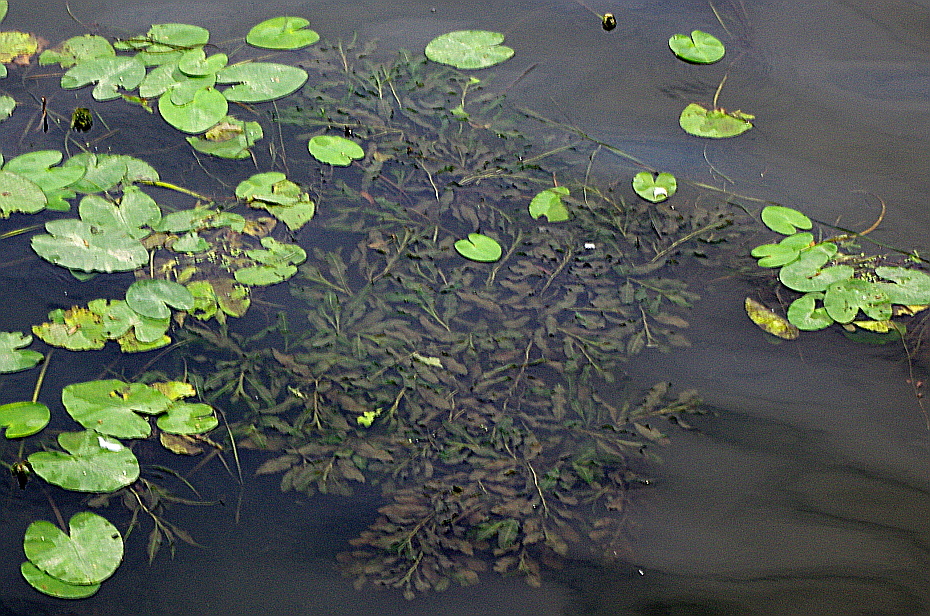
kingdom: Plantae
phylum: Tracheophyta
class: Liliopsida
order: Alismatales
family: Potamogetonaceae
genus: Potamogeton
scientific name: Potamogeton lucens
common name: Shining pondweed
